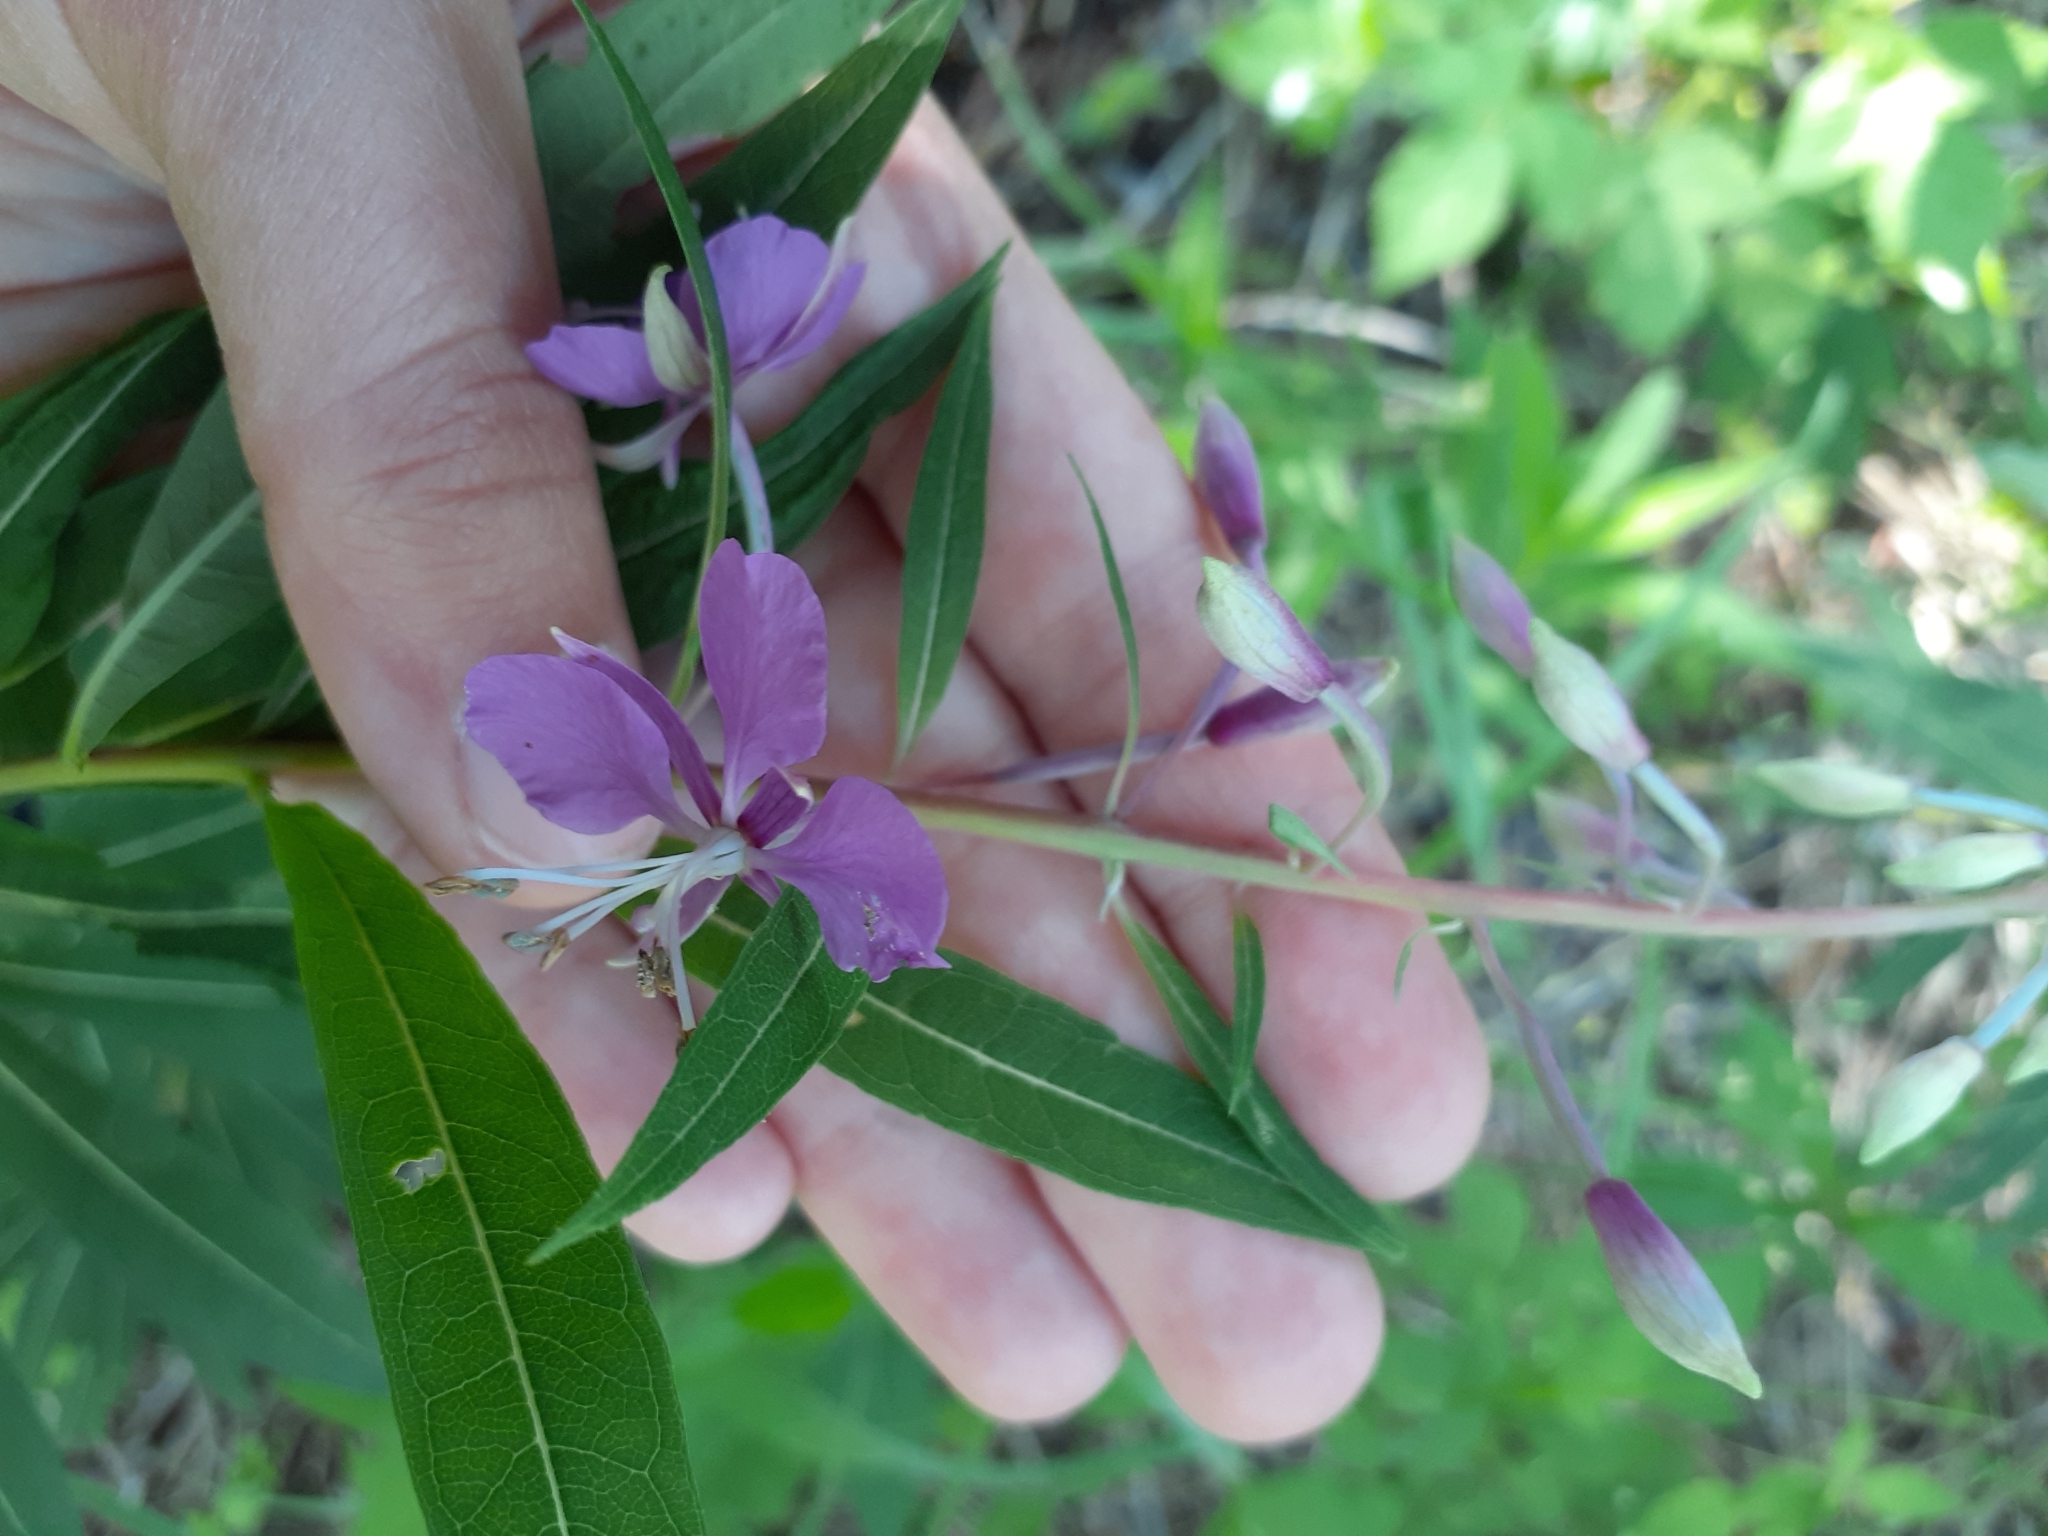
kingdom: Plantae
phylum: Tracheophyta
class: Magnoliopsida
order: Myrtales
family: Onagraceae
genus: Chamaenerion
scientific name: Chamaenerion angustifolium
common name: Fireweed
